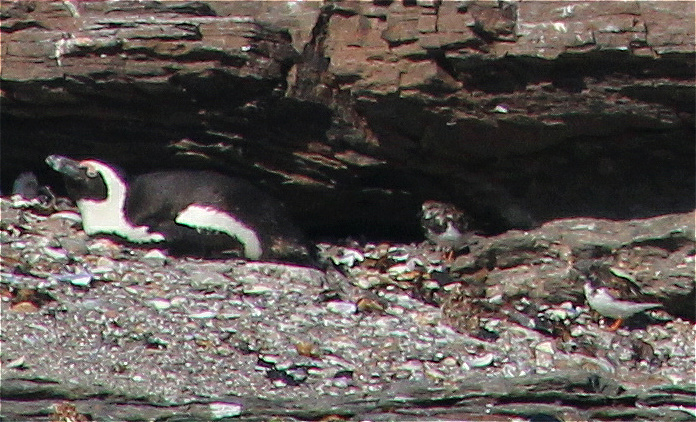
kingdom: Animalia
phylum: Chordata
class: Aves
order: Charadriiformes
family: Scolopacidae
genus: Arenaria
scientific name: Arenaria interpres
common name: Ruddy turnstone
